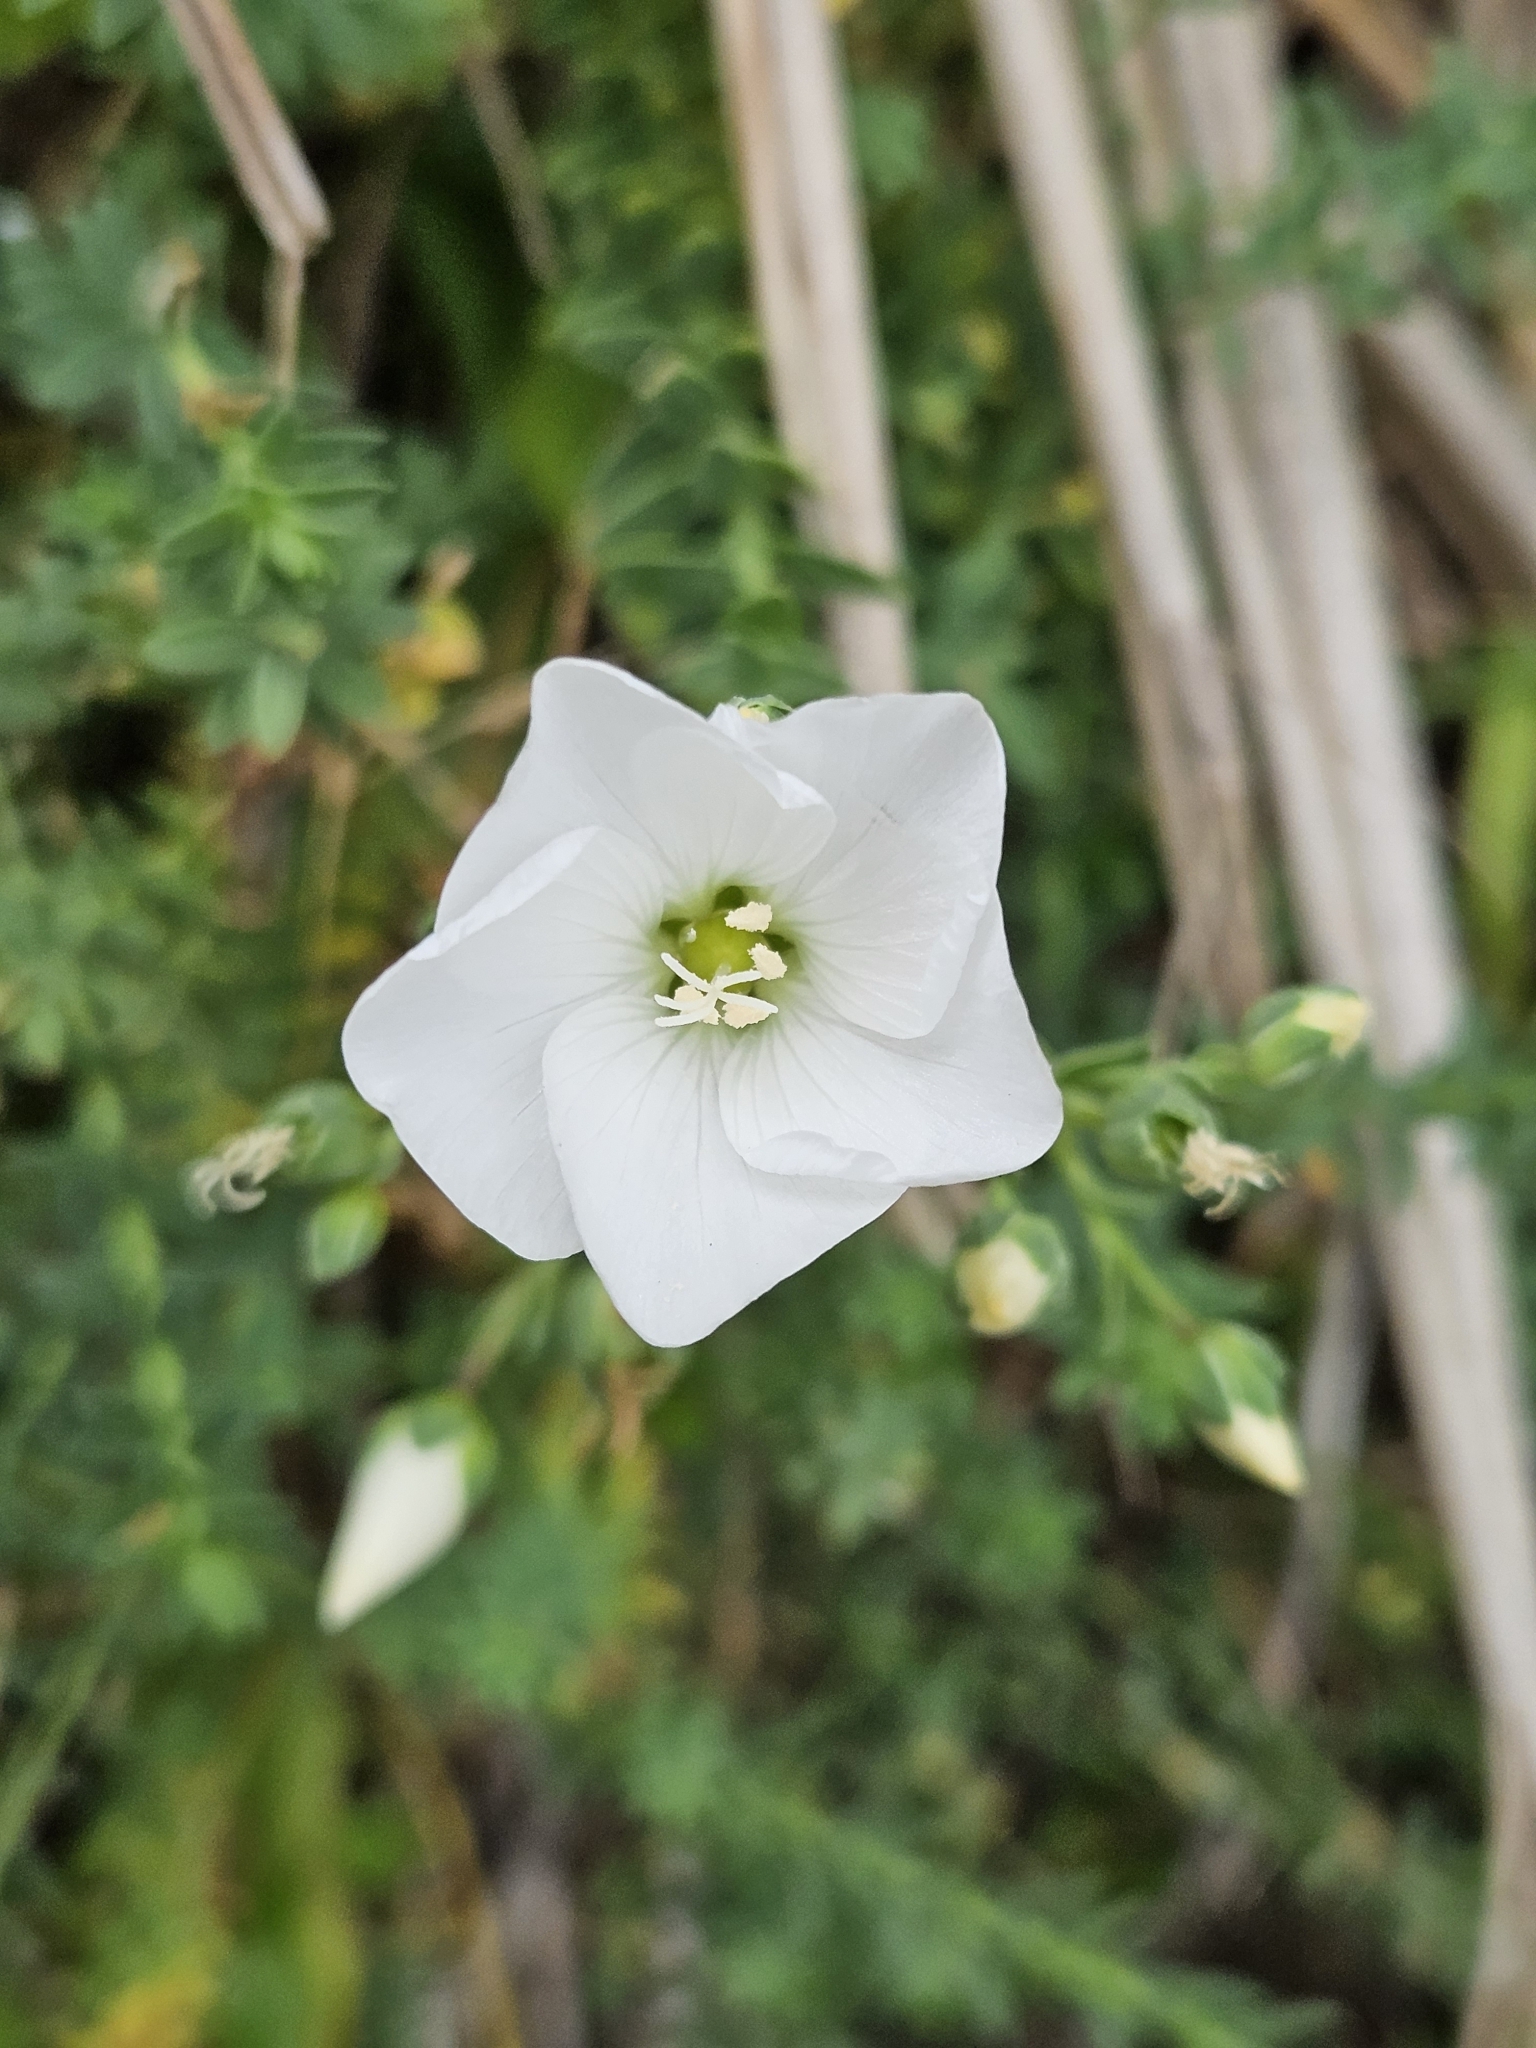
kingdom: Plantae
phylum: Tracheophyta
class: Magnoliopsida
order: Malpighiales
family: Linaceae
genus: Linum
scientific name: Linum monogynum
